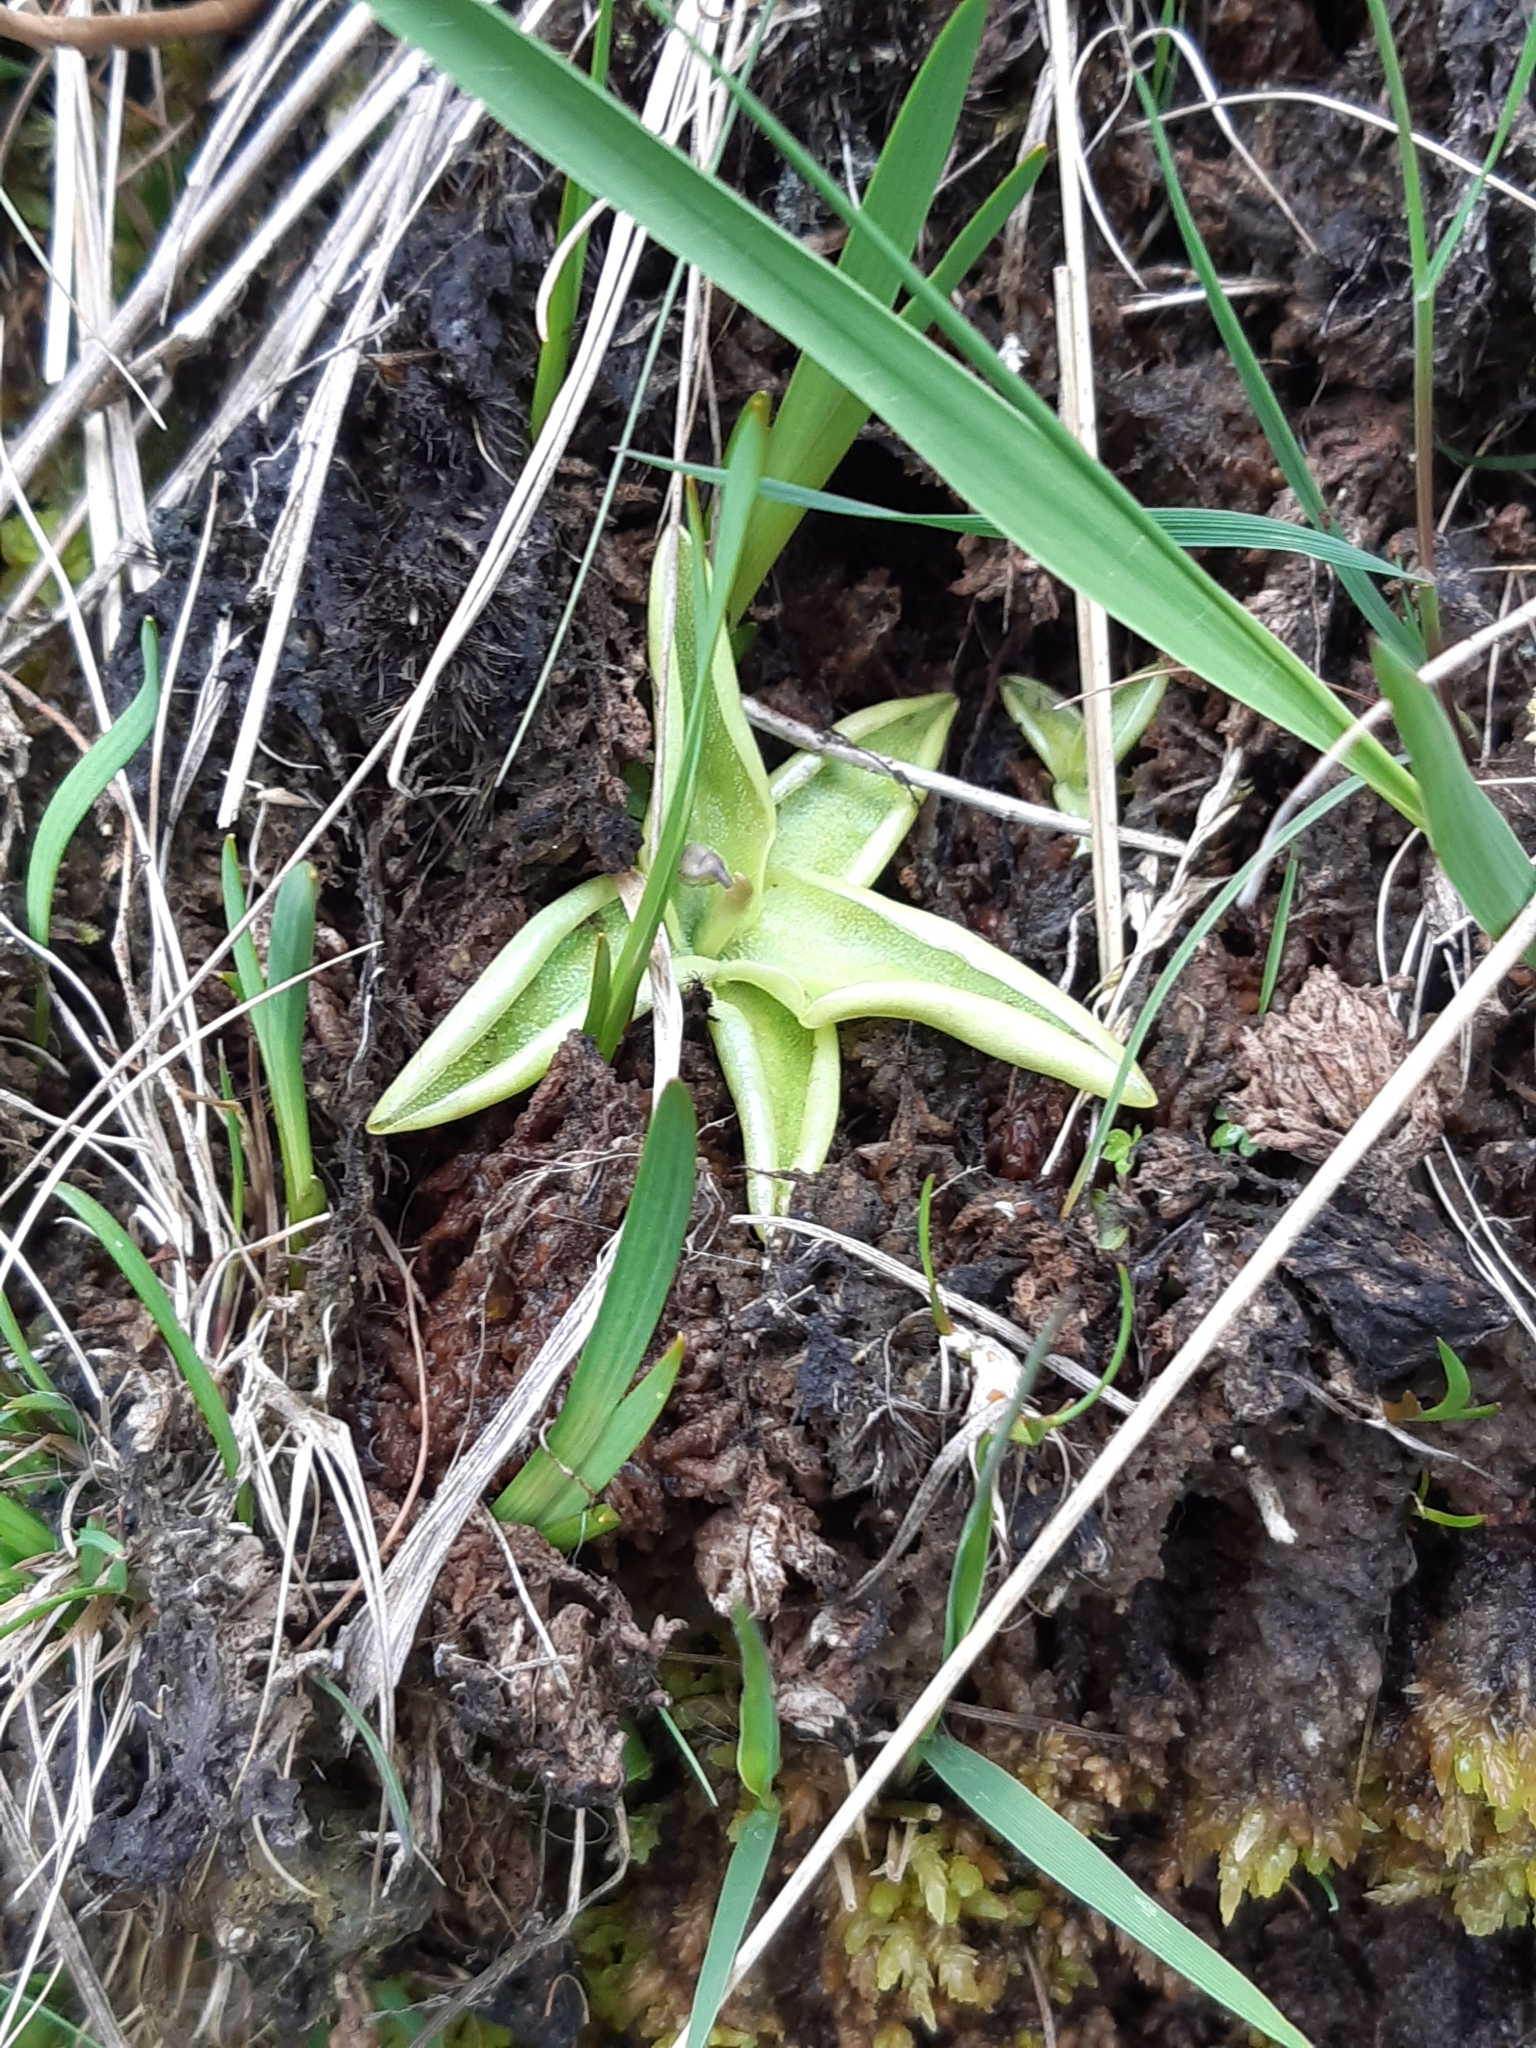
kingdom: Plantae
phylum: Tracheophyta
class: Magnoliopsida
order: Lamiales
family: Lentibulariaceae
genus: Pinguicula
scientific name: Pinguicula vulgaris
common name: Common butterwort
